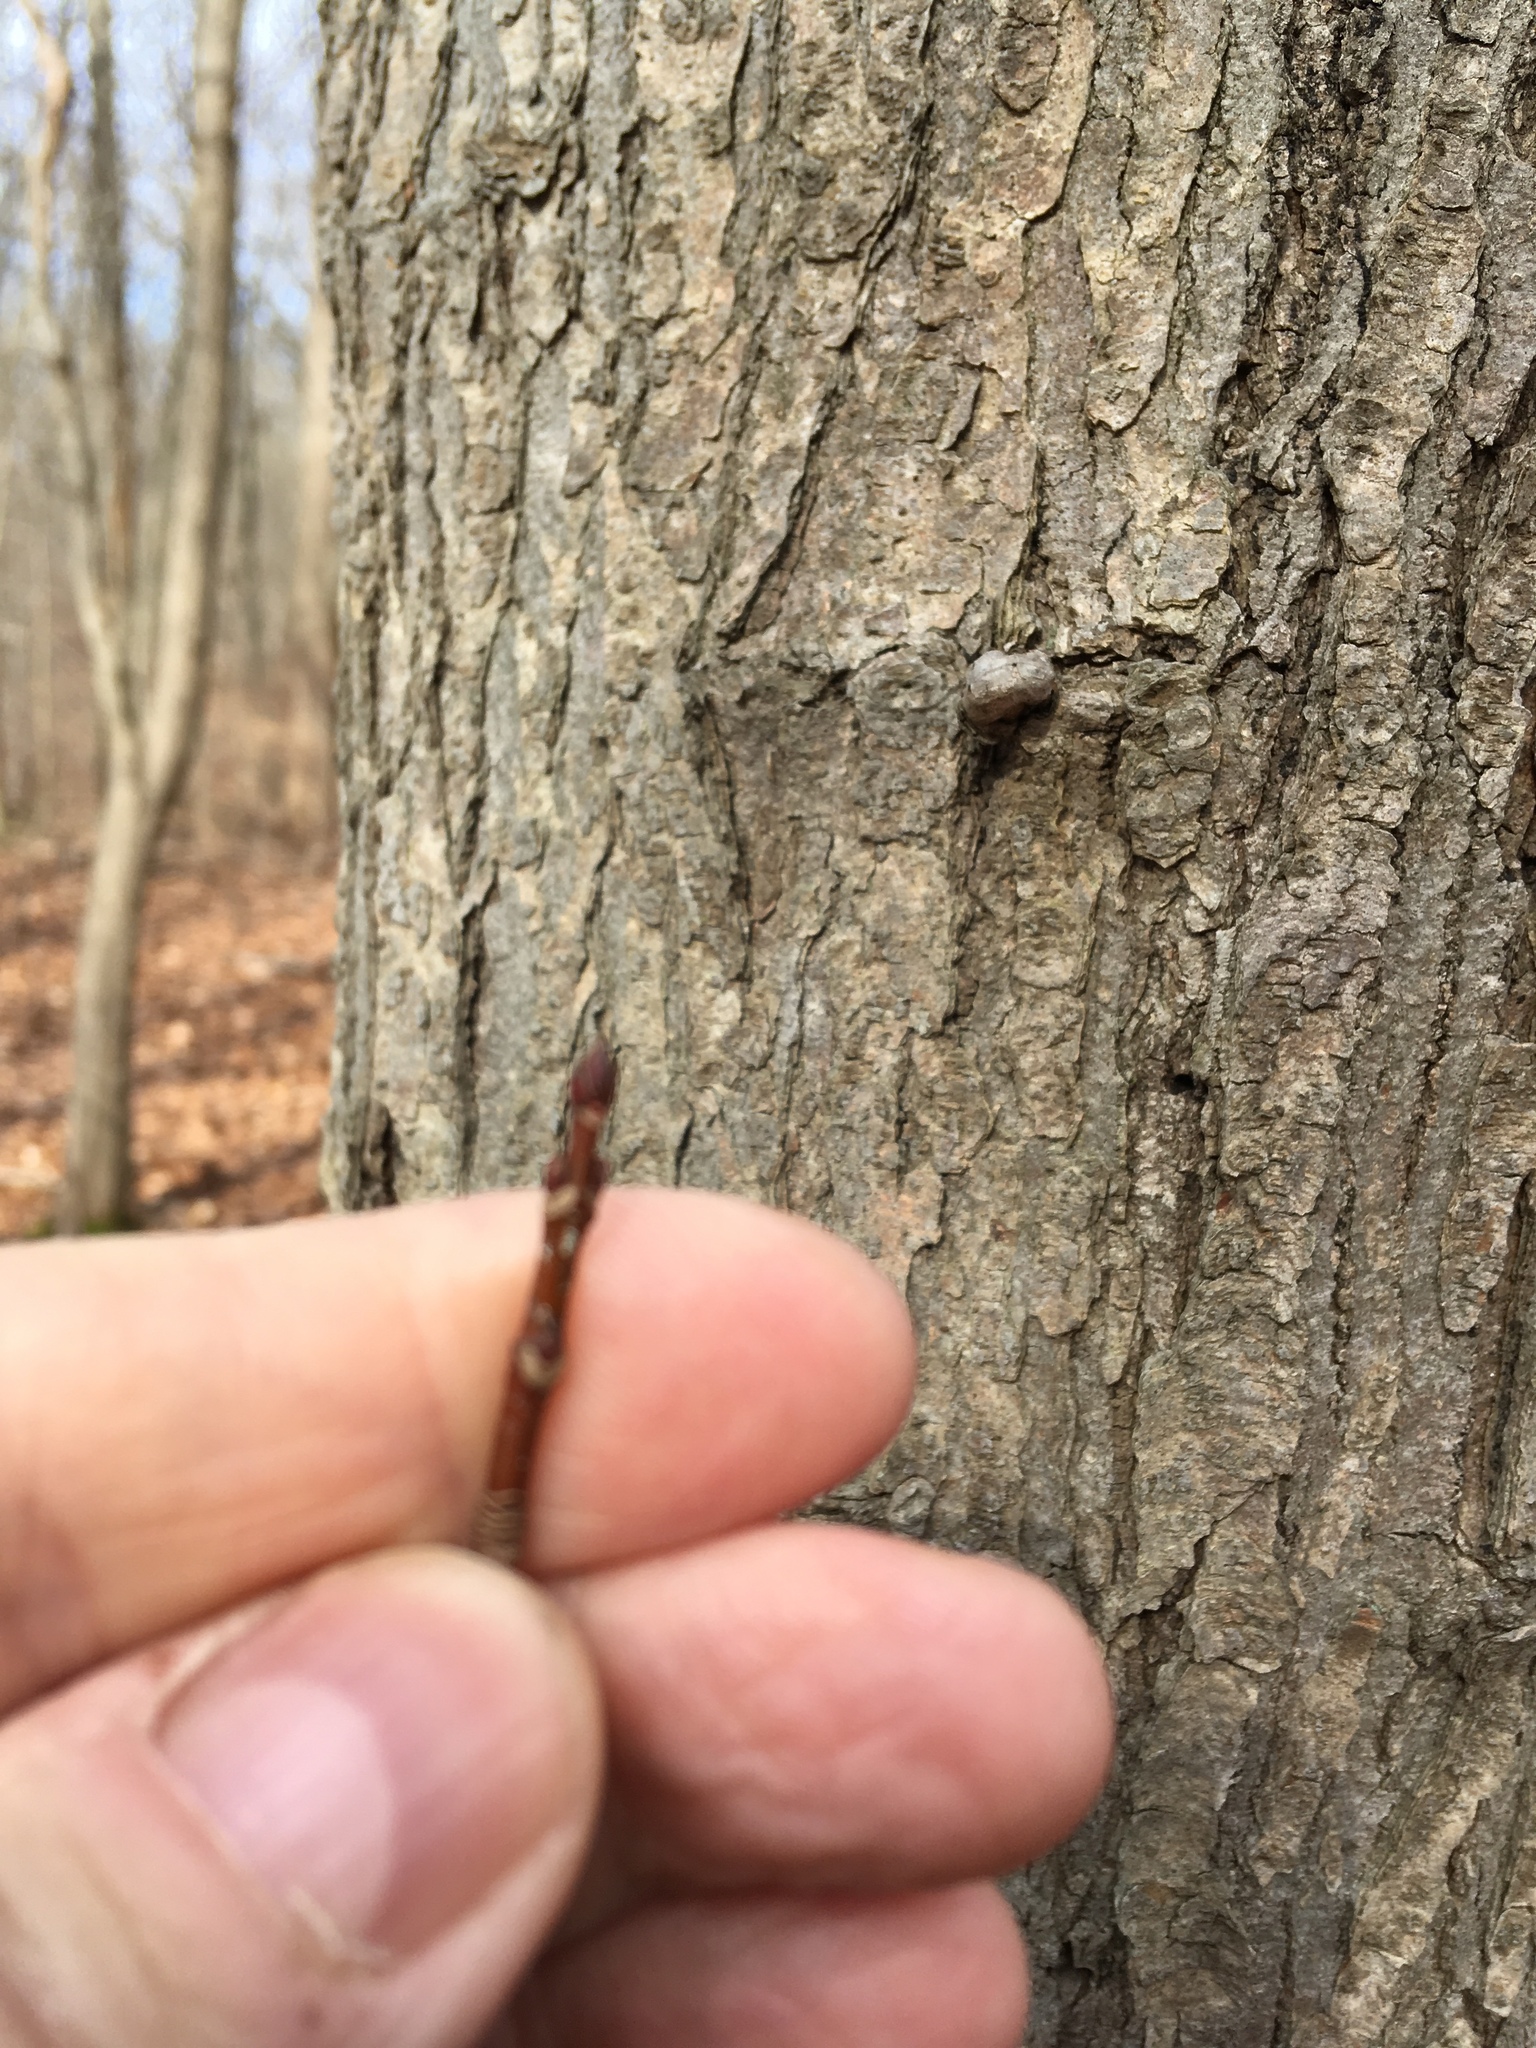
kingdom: Plantae
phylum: Tracheophyta
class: Magnoliopsida
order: Sapindales
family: Sapindaceae
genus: Acer
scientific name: Acer rubrum
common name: Red maple
